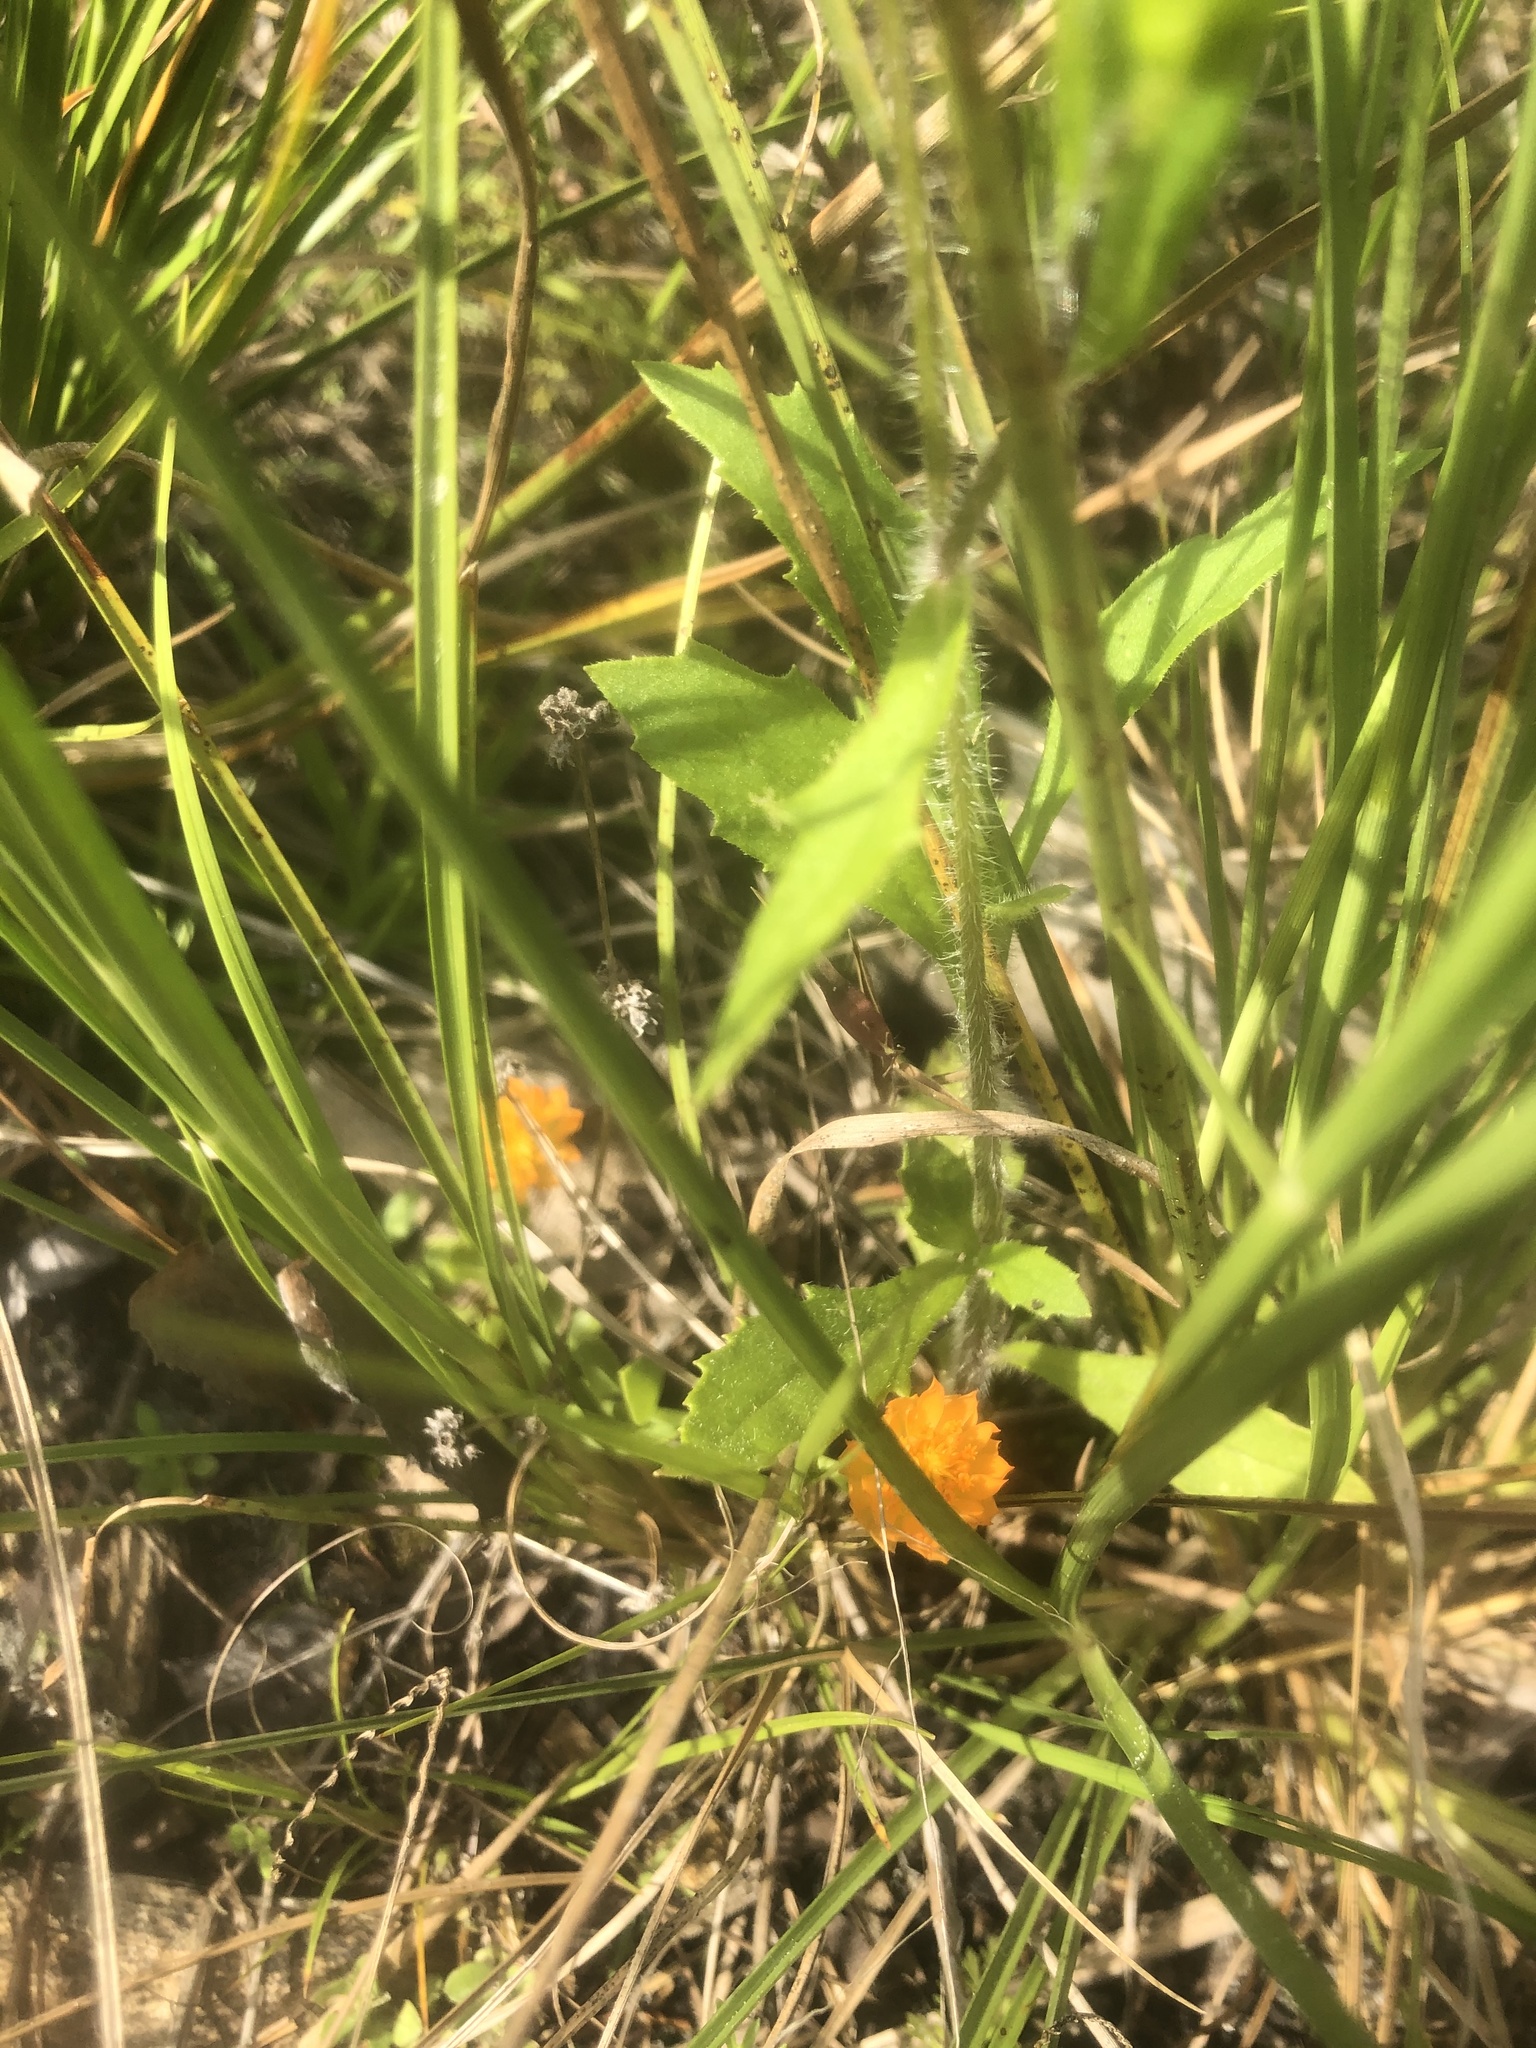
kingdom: Plantae
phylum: Tracheophyta
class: Magnoliopsida
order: Fabales
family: Polygalaceae
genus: Polygala
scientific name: Polygala lutea
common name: Orange milkwort
